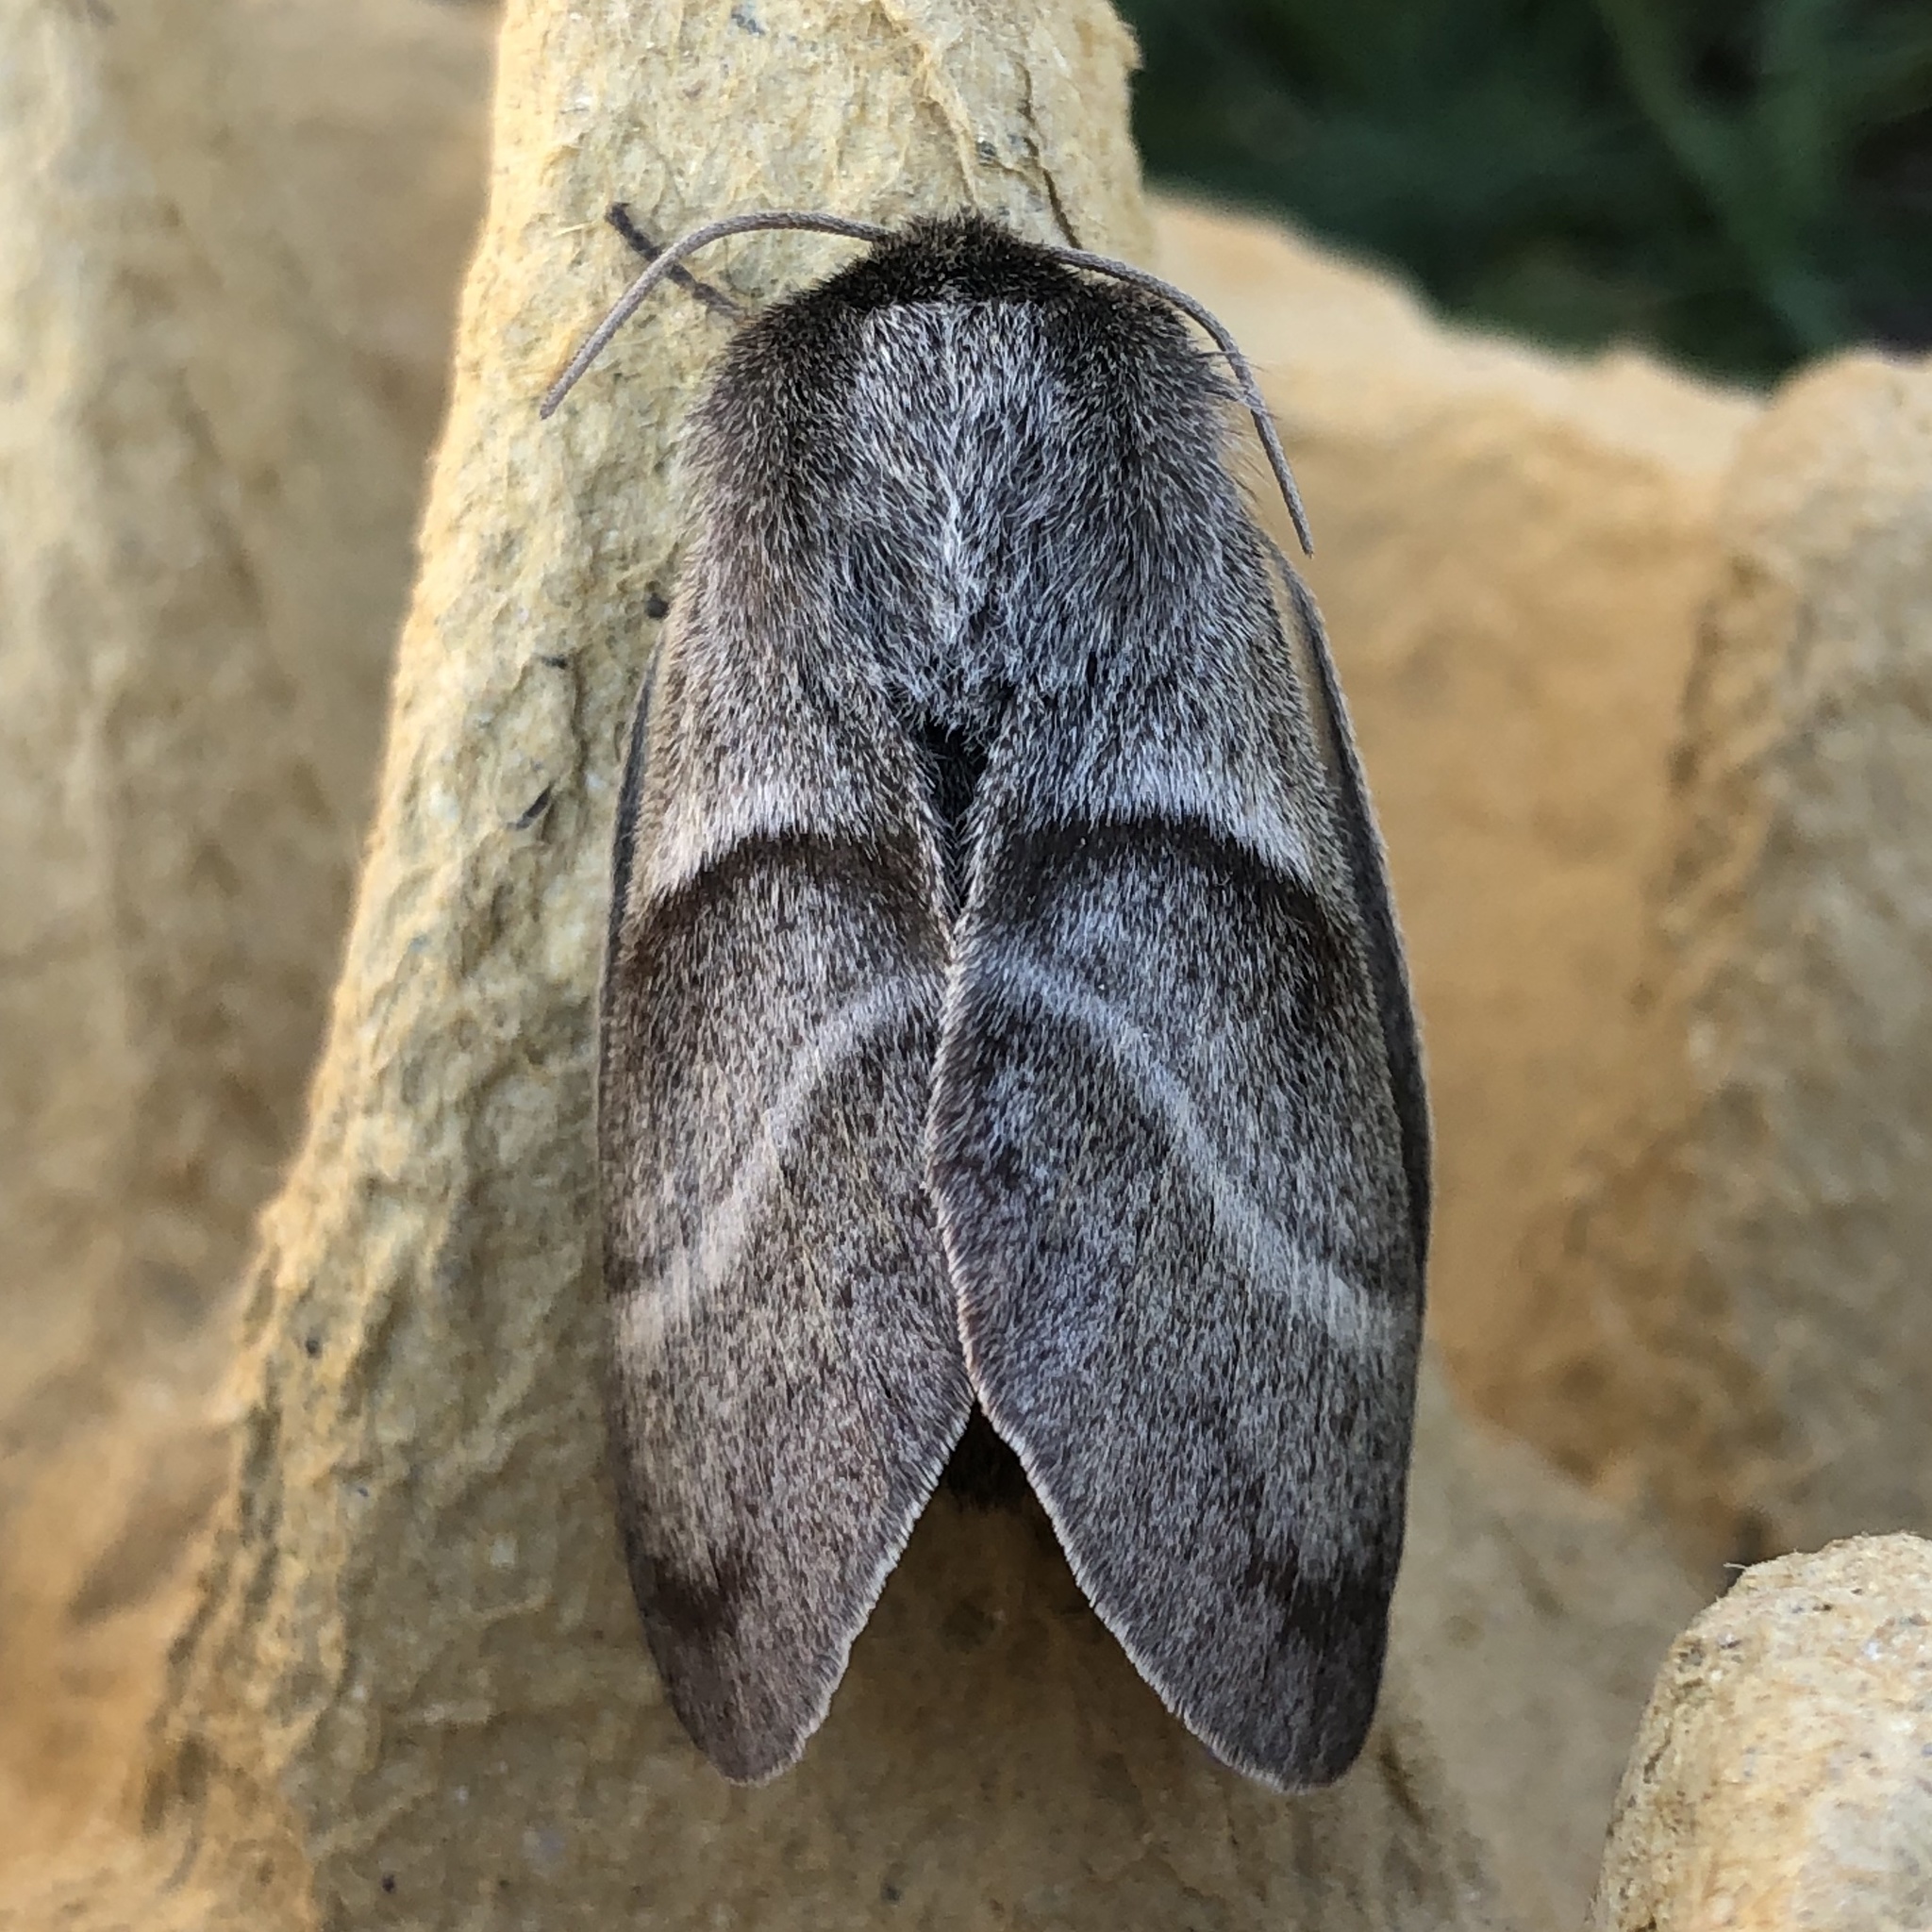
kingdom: Animalia
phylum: Arthropoda
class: Insecta
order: Lepidoptera
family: Lasiocampidae
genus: Macrothylacia
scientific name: Macrothylacia rubi
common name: Fox moth
